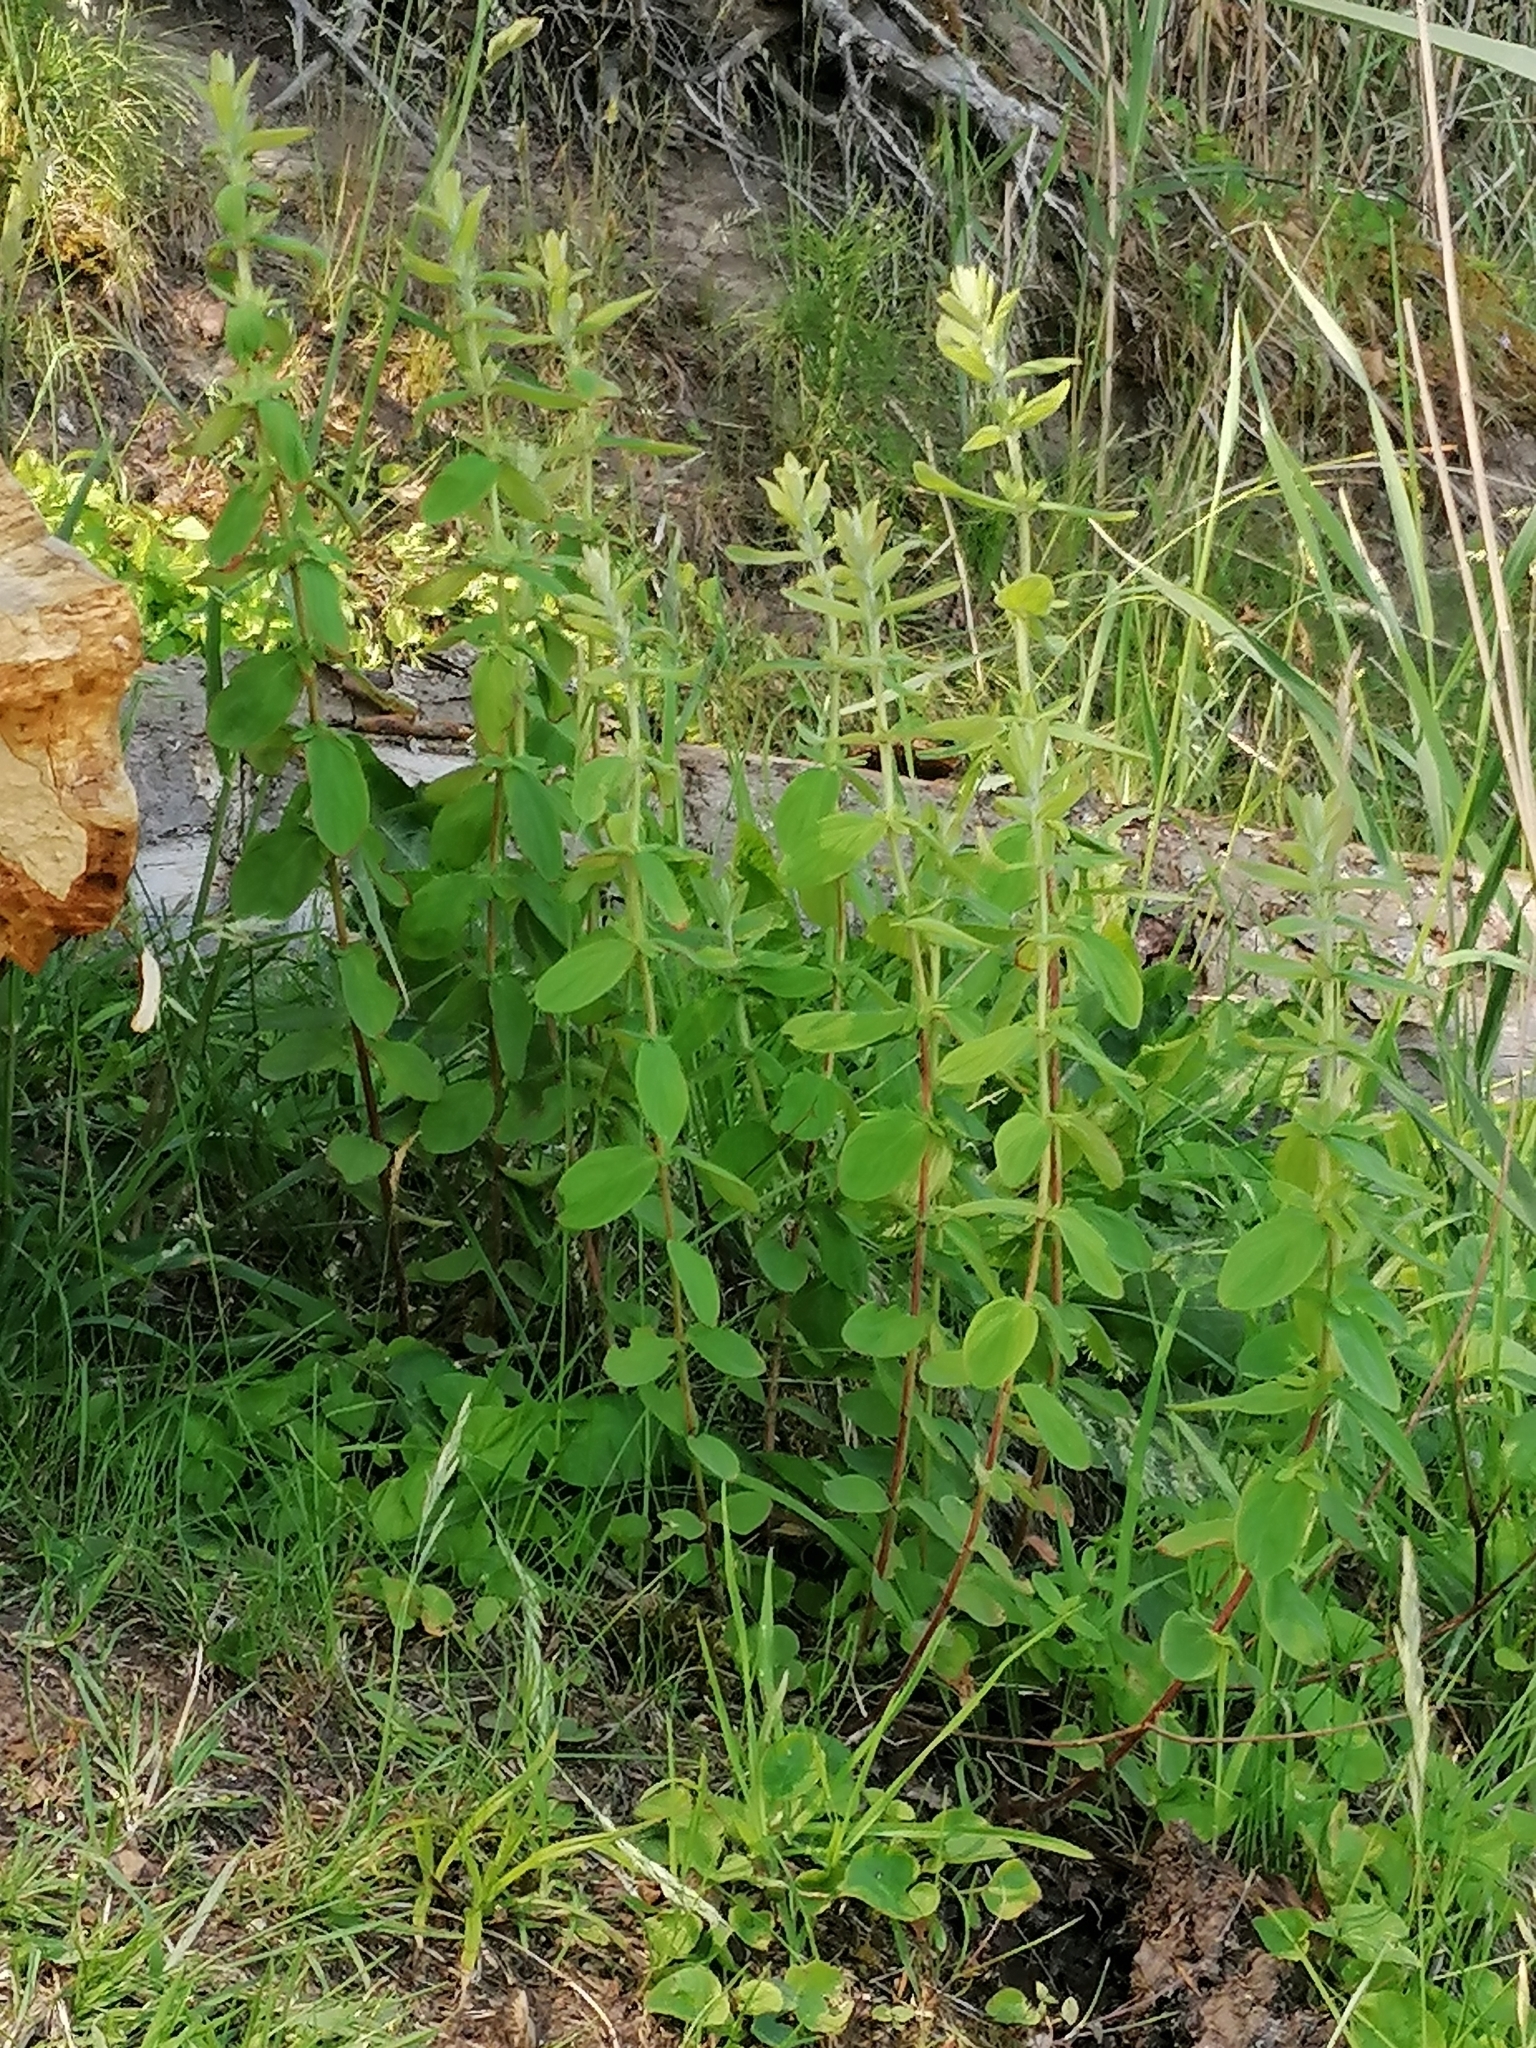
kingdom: Plantae
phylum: Tracheophyta
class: Magnoliopsida
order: Malpighiales
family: Hypericaceae
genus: Hypericum
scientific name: Hypericum hirsutum
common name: Hairy st. john's-wort
